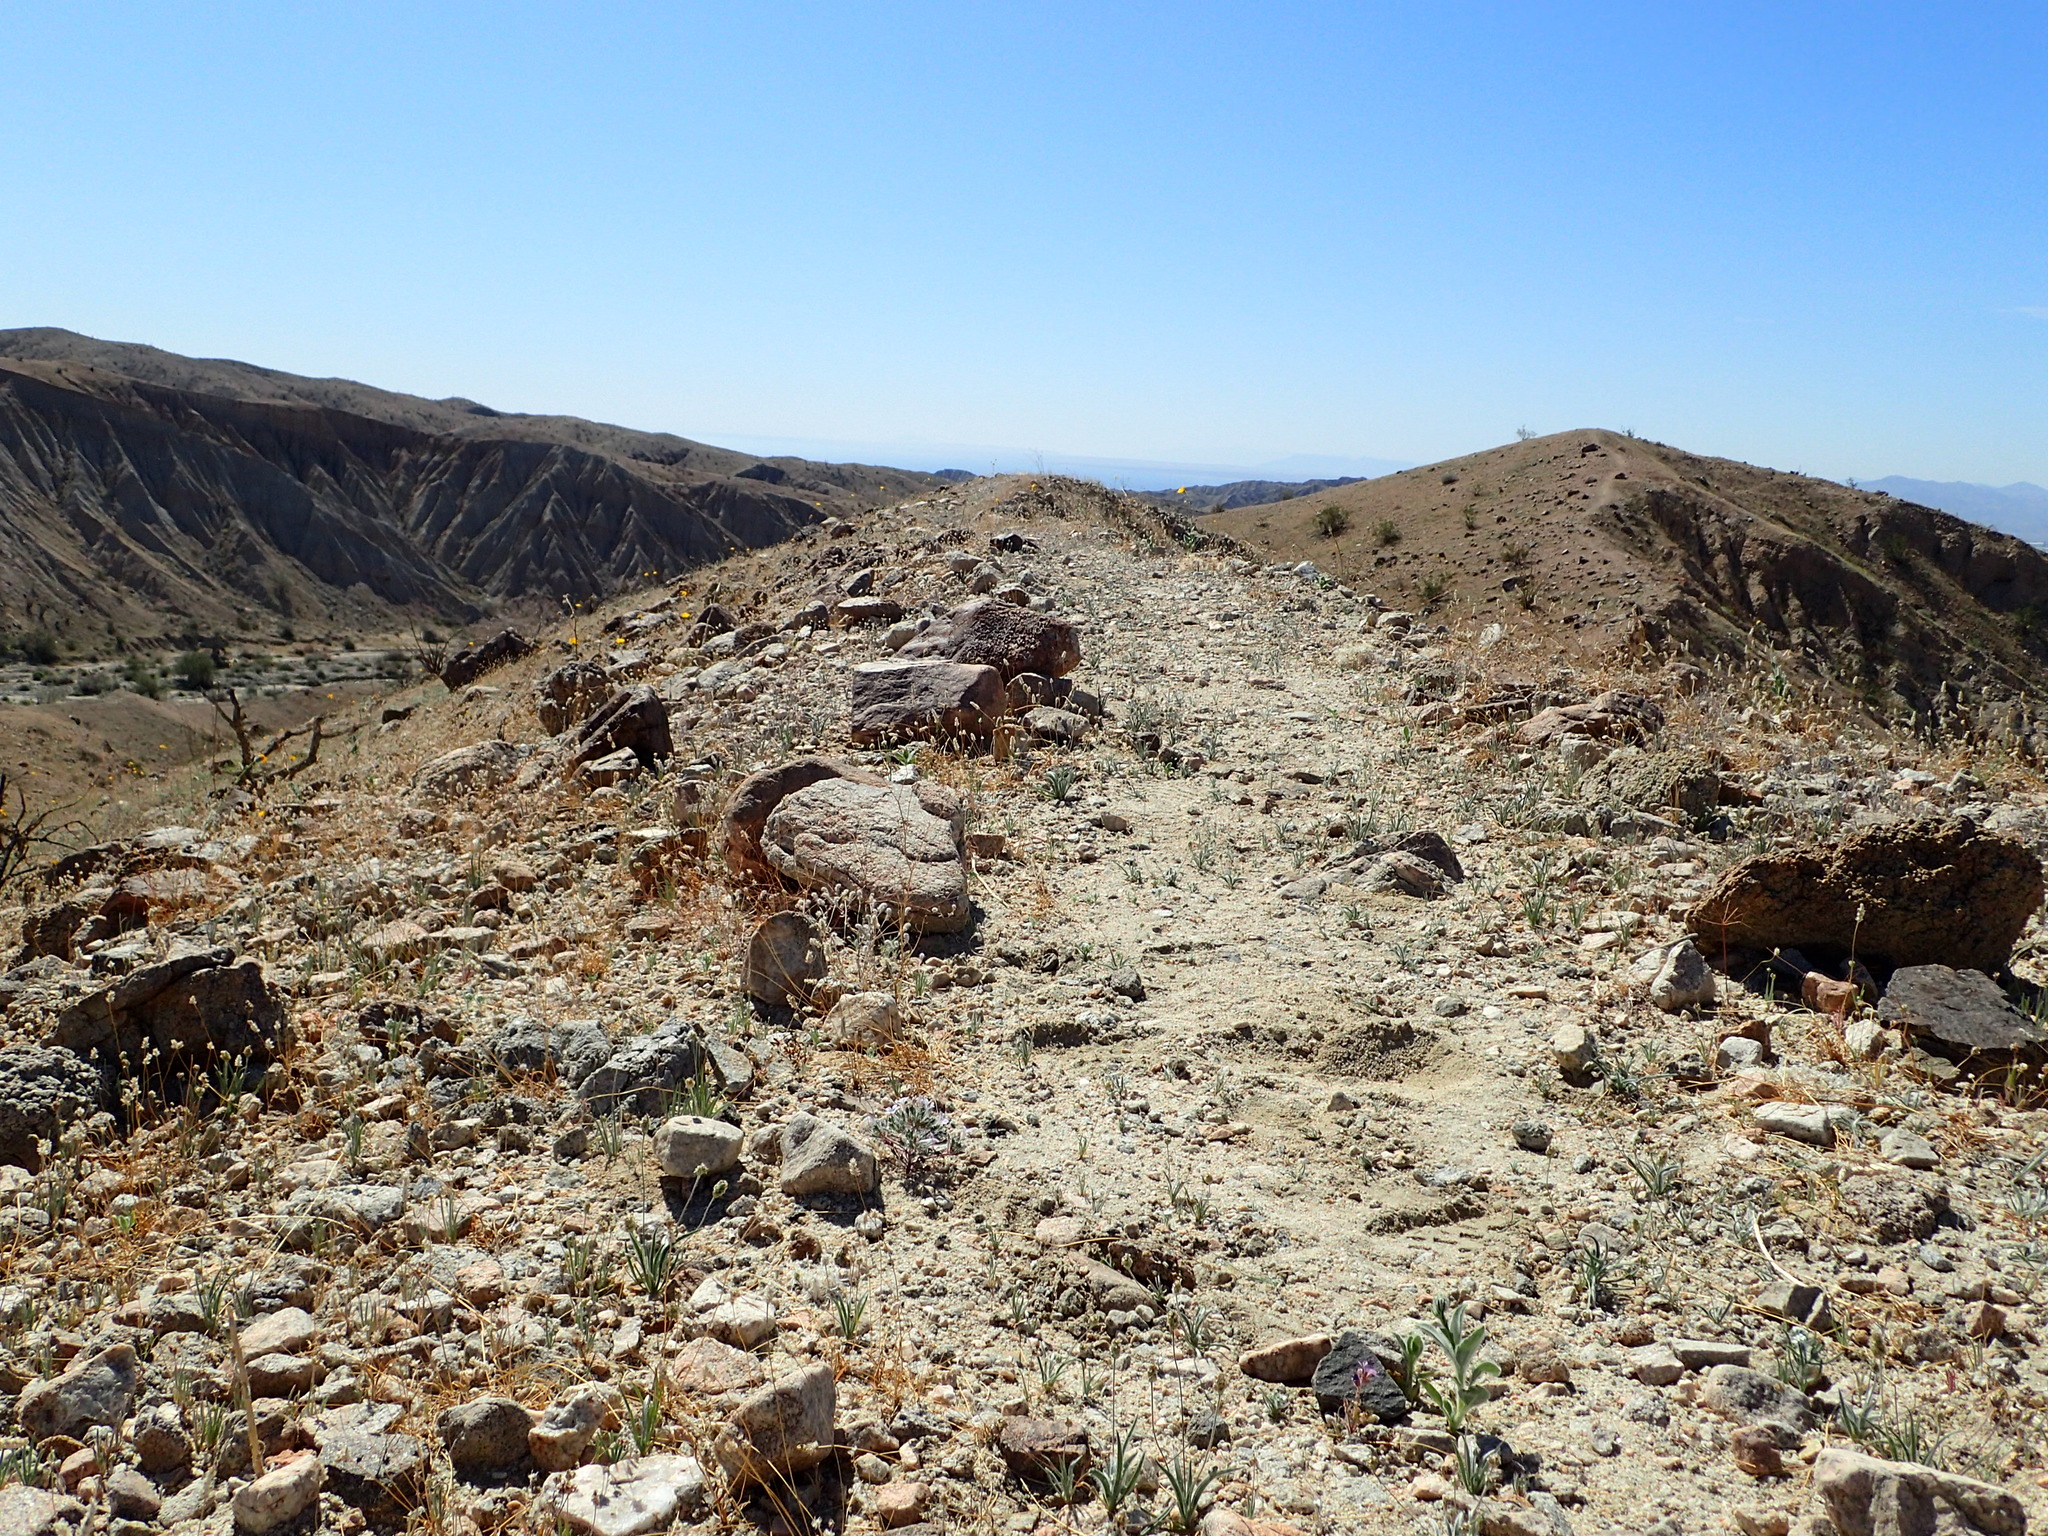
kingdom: Plantae
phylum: Tracheophyta
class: Magnoliopsida
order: Ericales
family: Polemoniaceae
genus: Langloisia
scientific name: Langloisia setosissima
